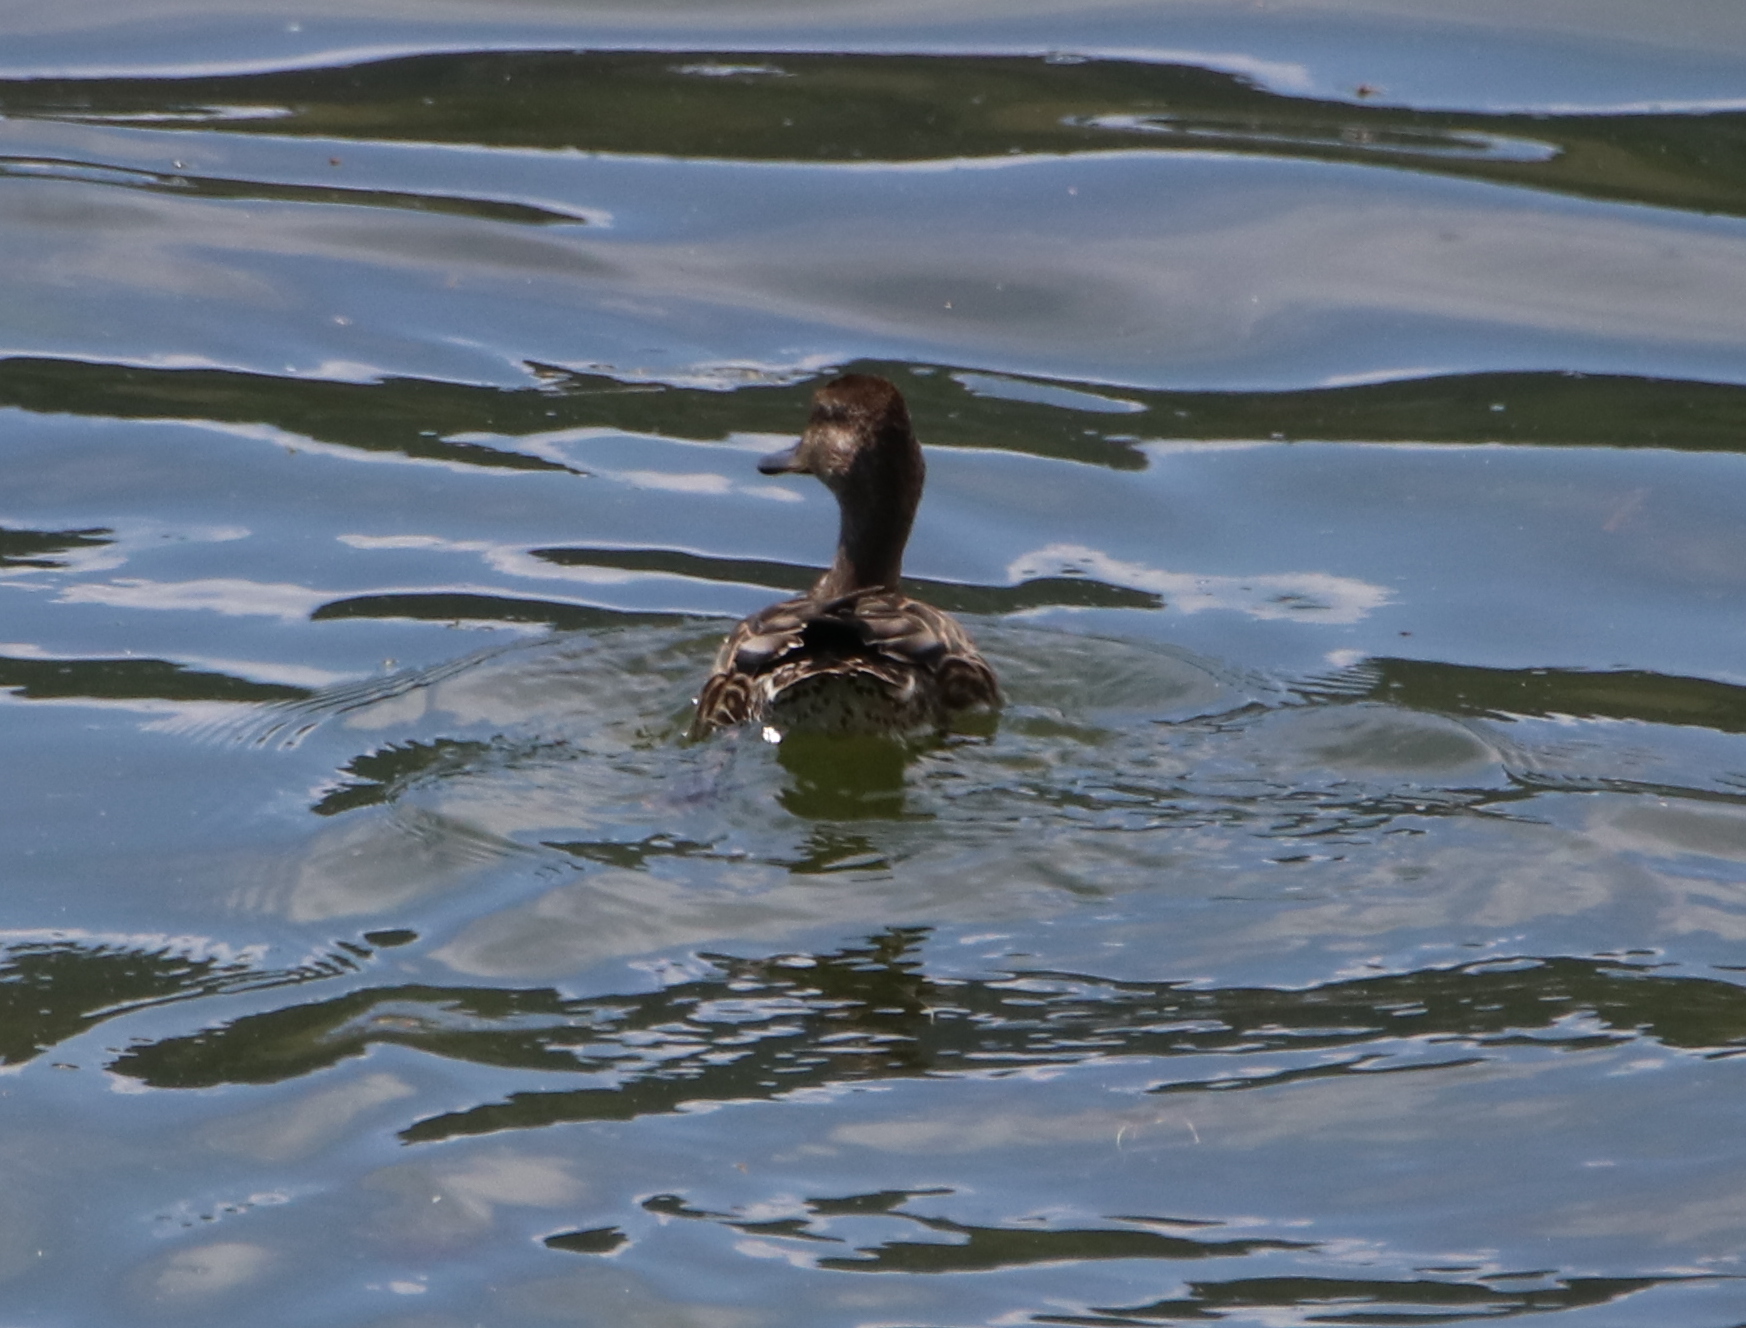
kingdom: Animalia
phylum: Chordata
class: Aves
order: Anseriformes
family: Anatidae
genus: Anas
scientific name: Anas platyrhynchos
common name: Mallard
